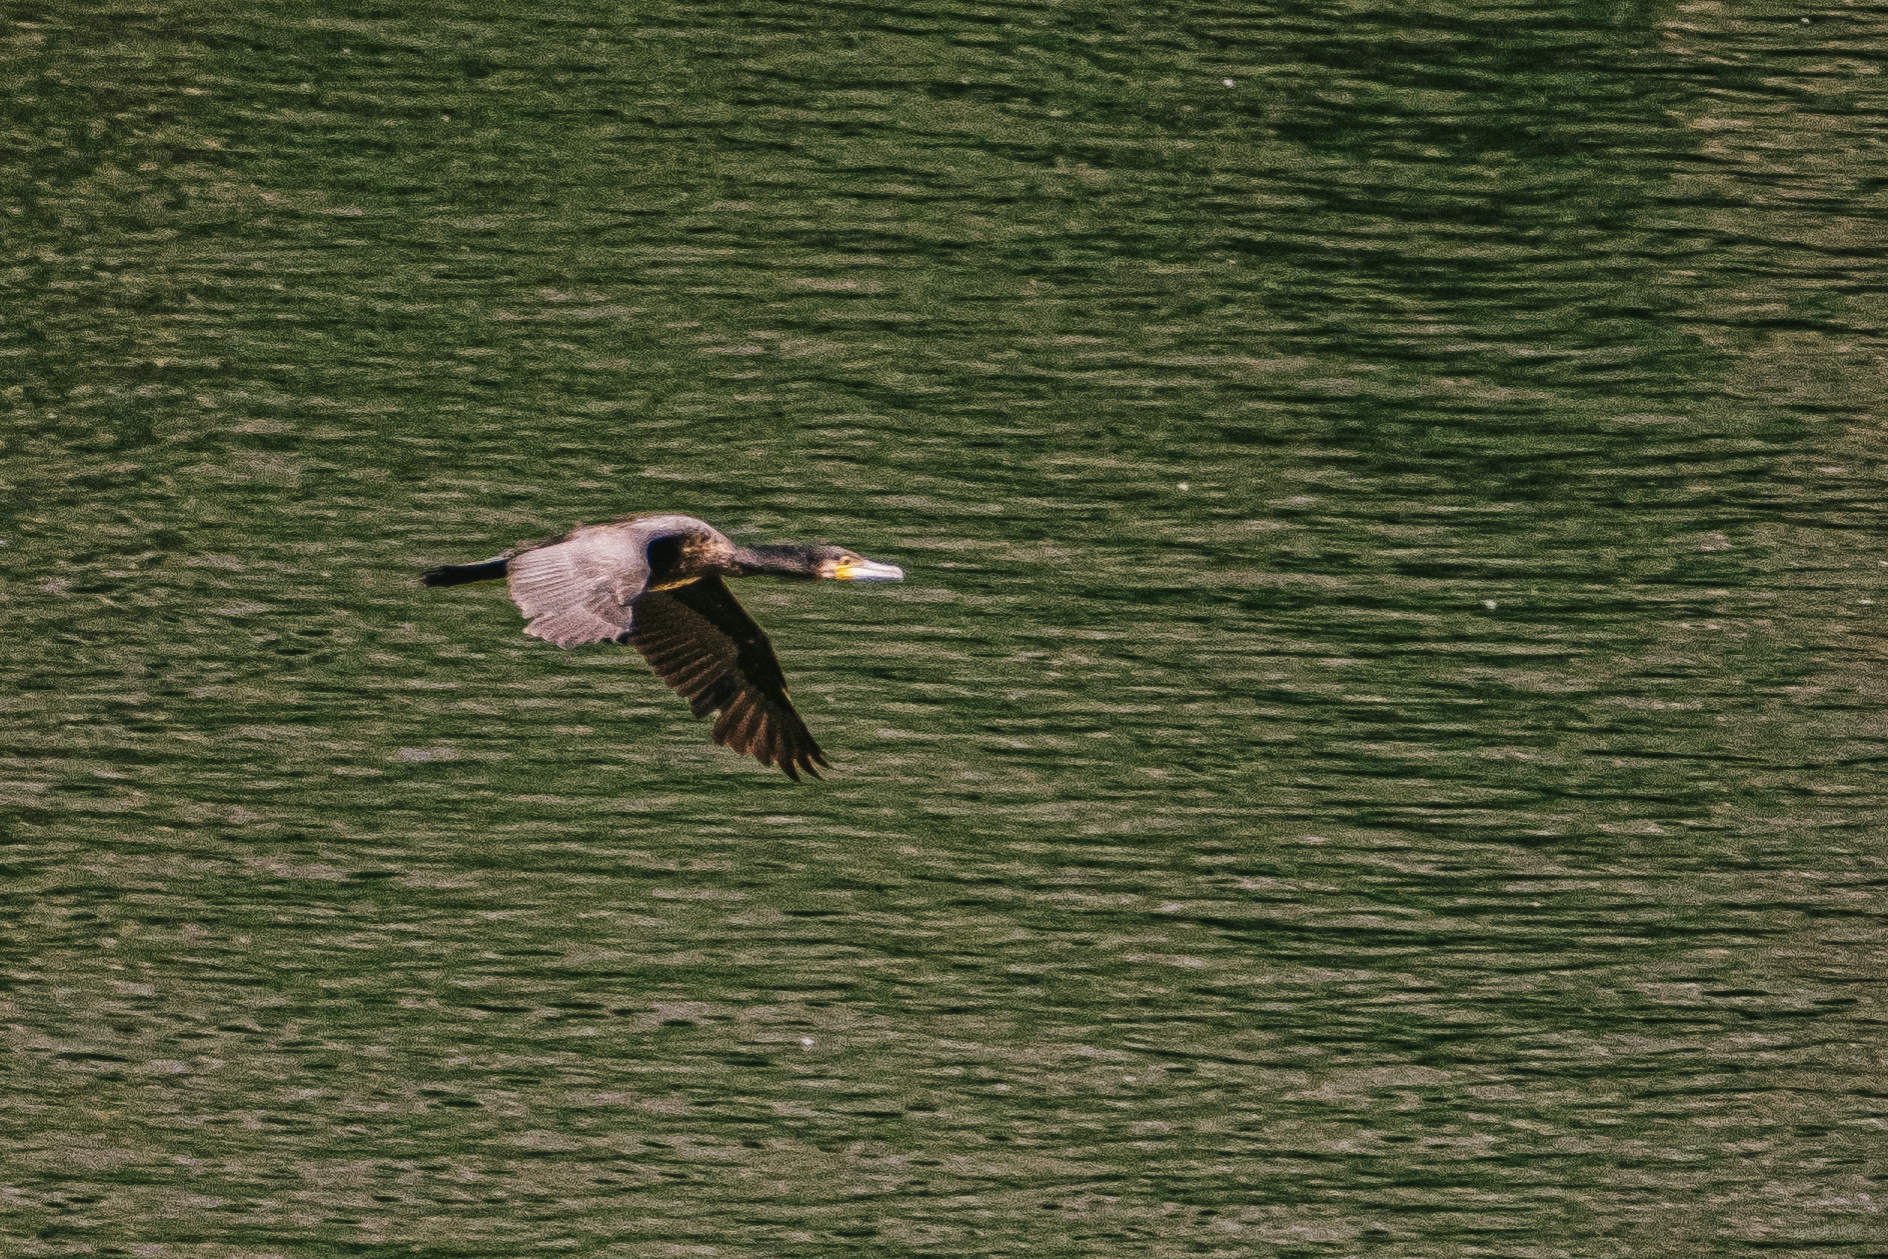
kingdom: Animalia
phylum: Chordata
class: Aves
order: Suliformes
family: Phalacrocoracidae
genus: Phalacrocorax
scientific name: Phalacrocorax carbo
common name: Great cormorant
